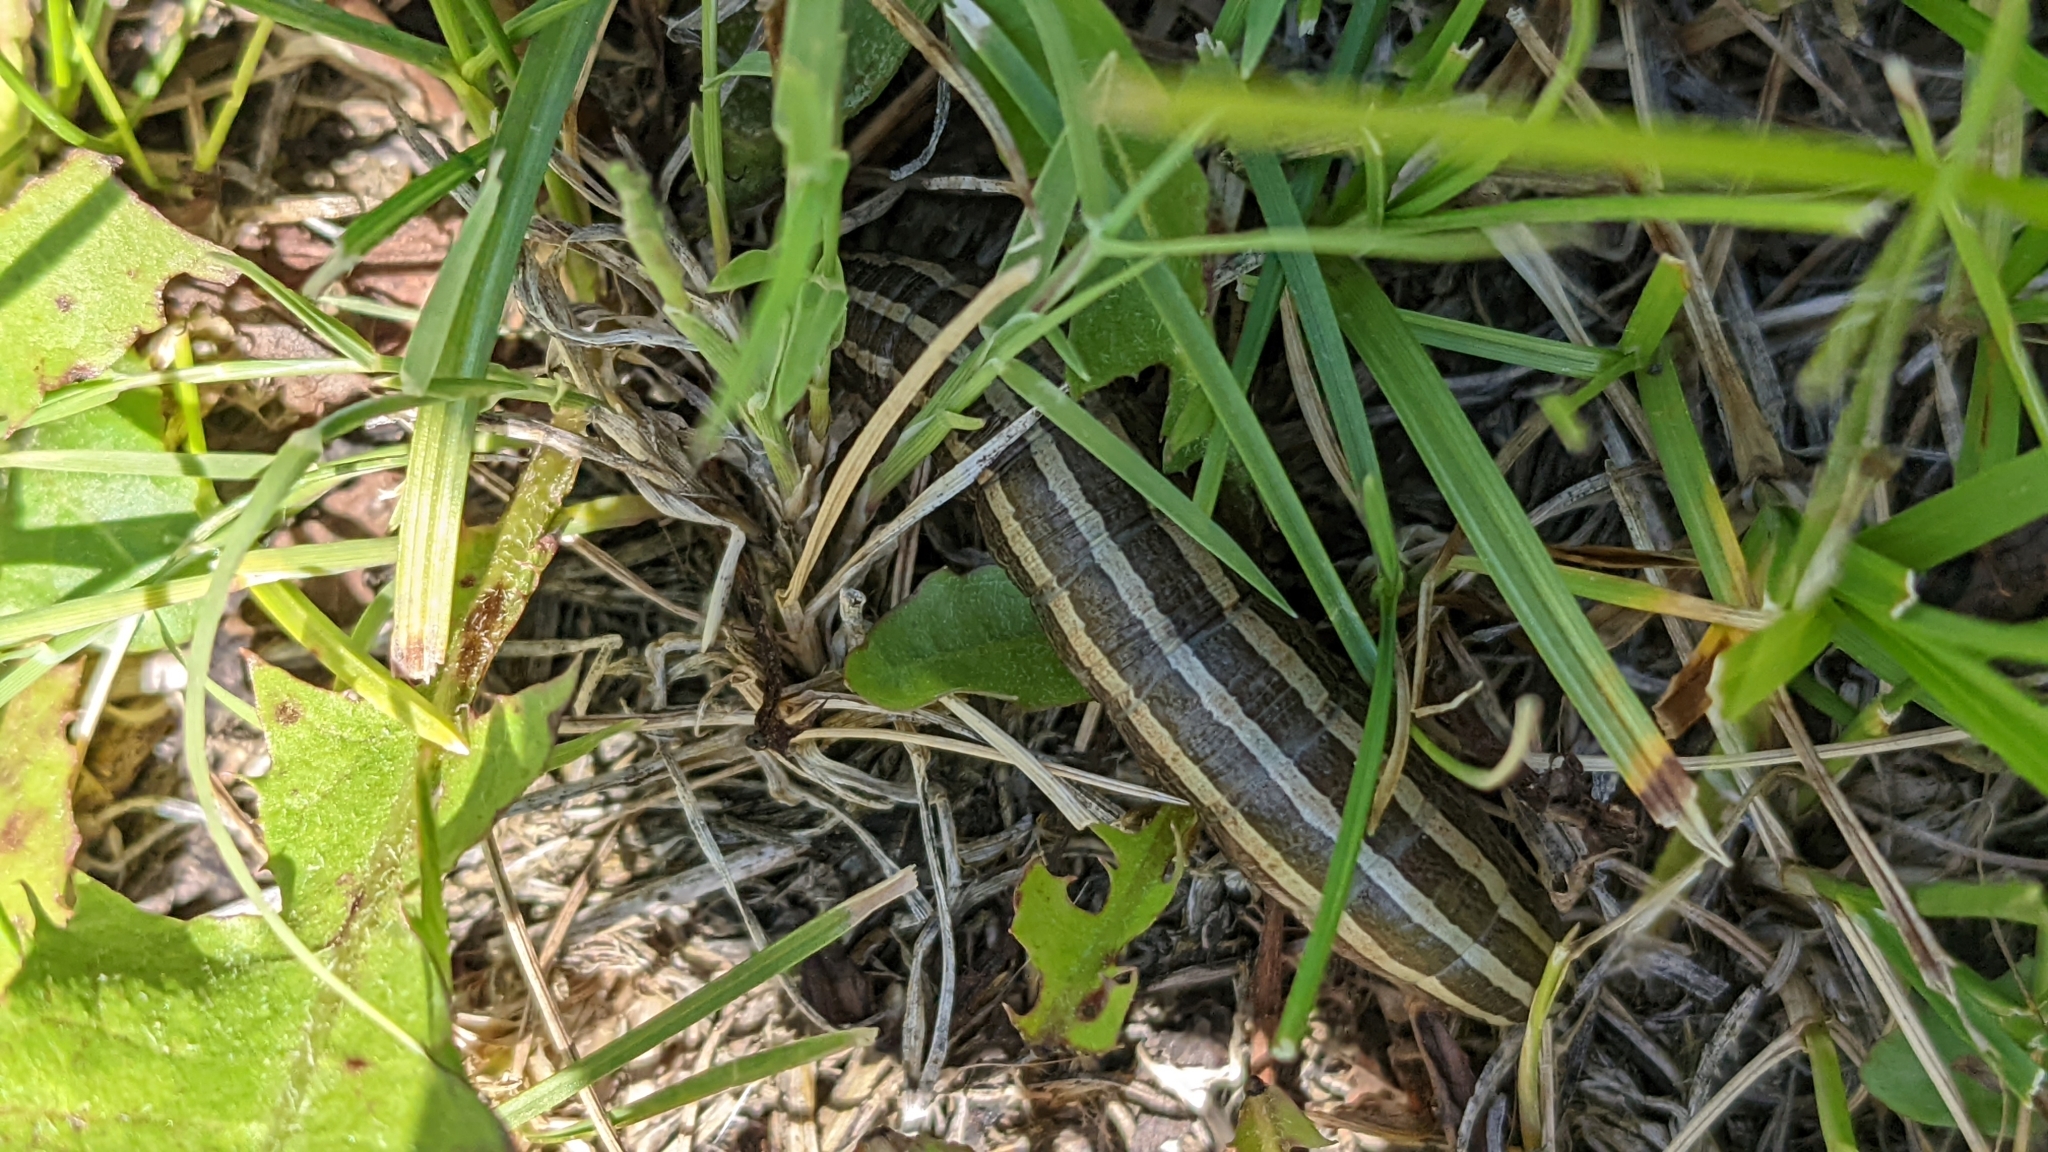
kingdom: Animalia
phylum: Arthropoda
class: Insecta
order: Lepidoptera
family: Noctuidae
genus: Nephelodes
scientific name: Nephelodes minians
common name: Bronzed cutworm
